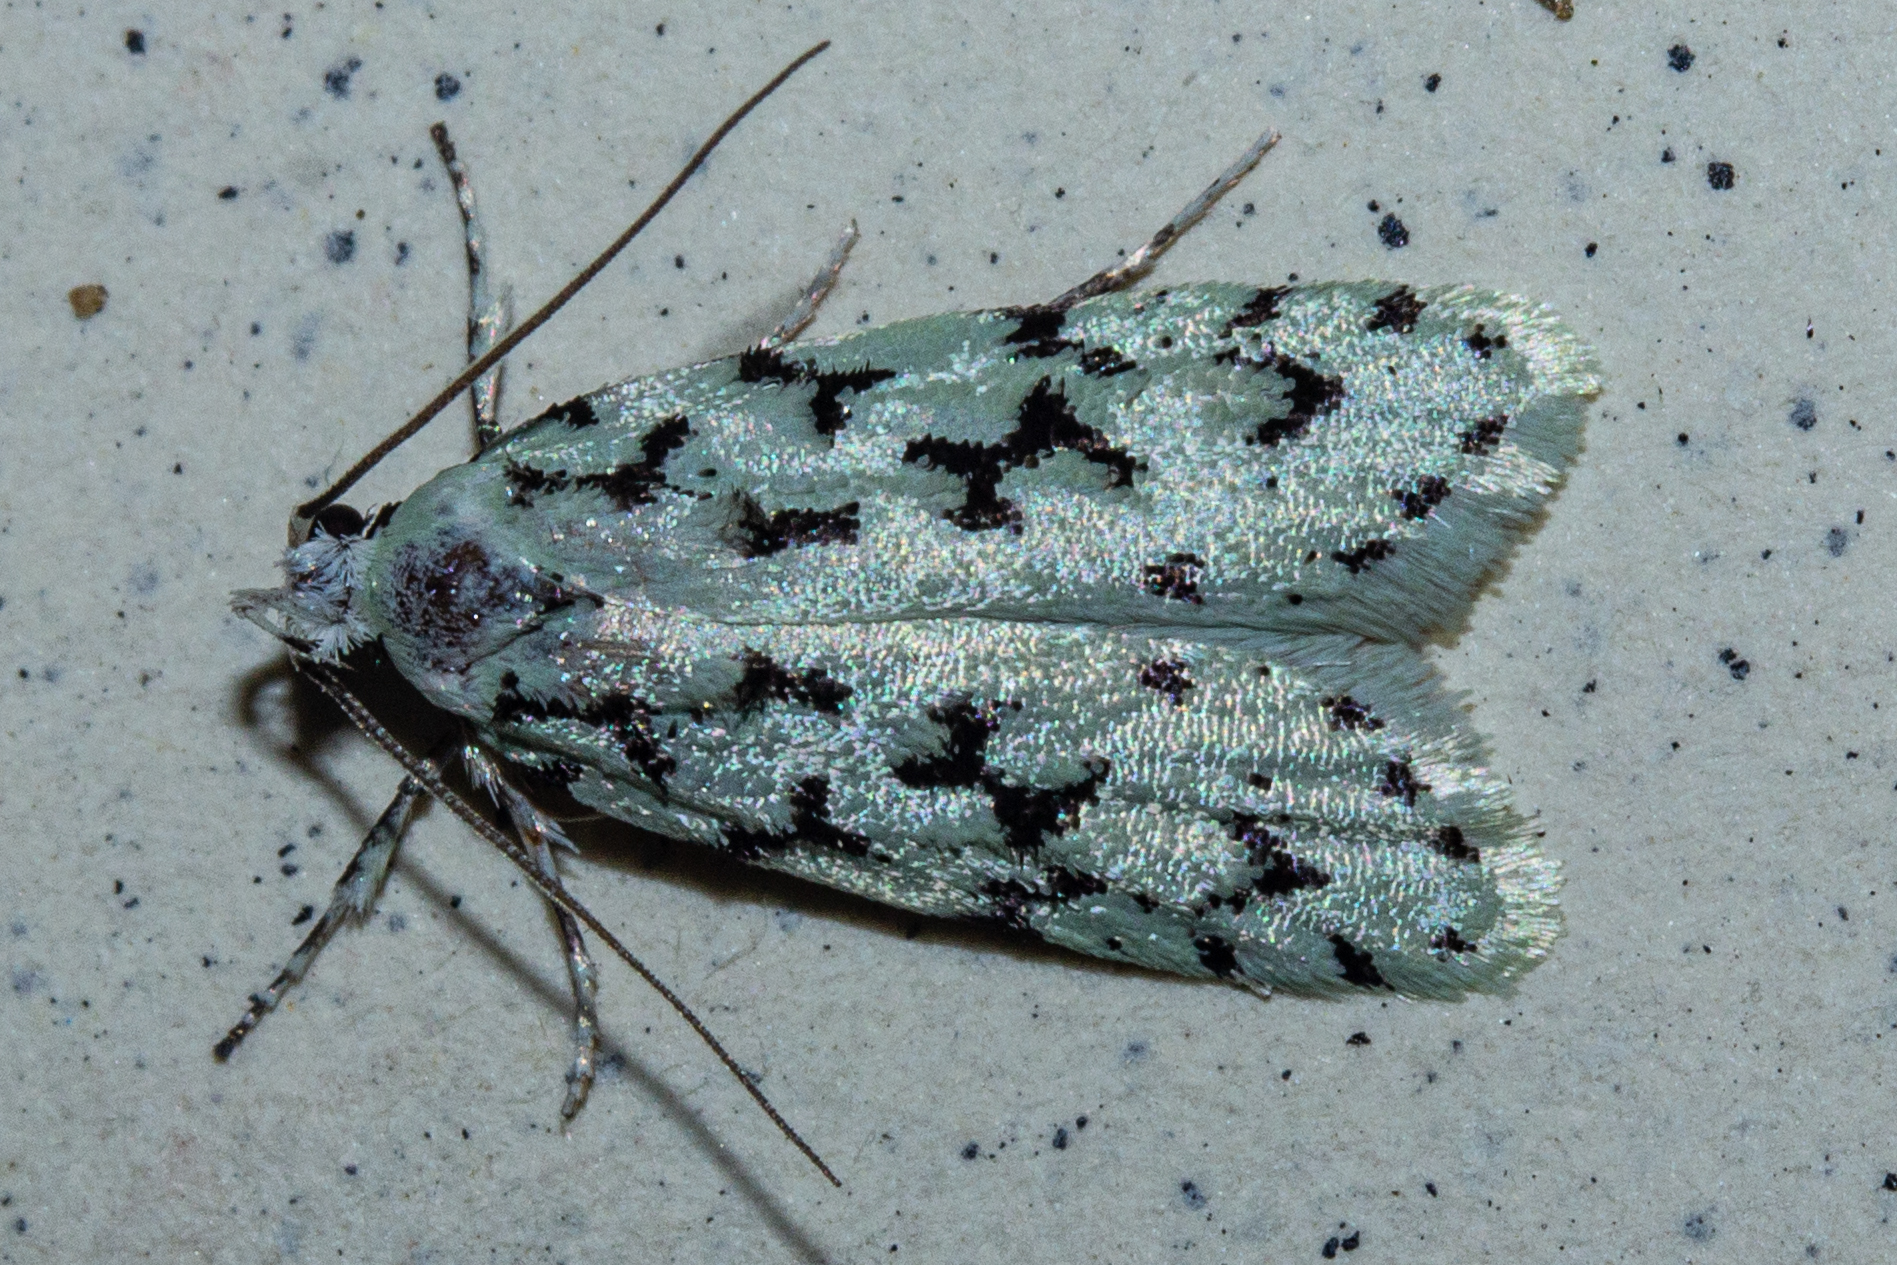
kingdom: Animalia
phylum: Arthropoda
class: Insecta
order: Lepidoptera
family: Oecophoridae
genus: Izatha
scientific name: Izatha huttoni
